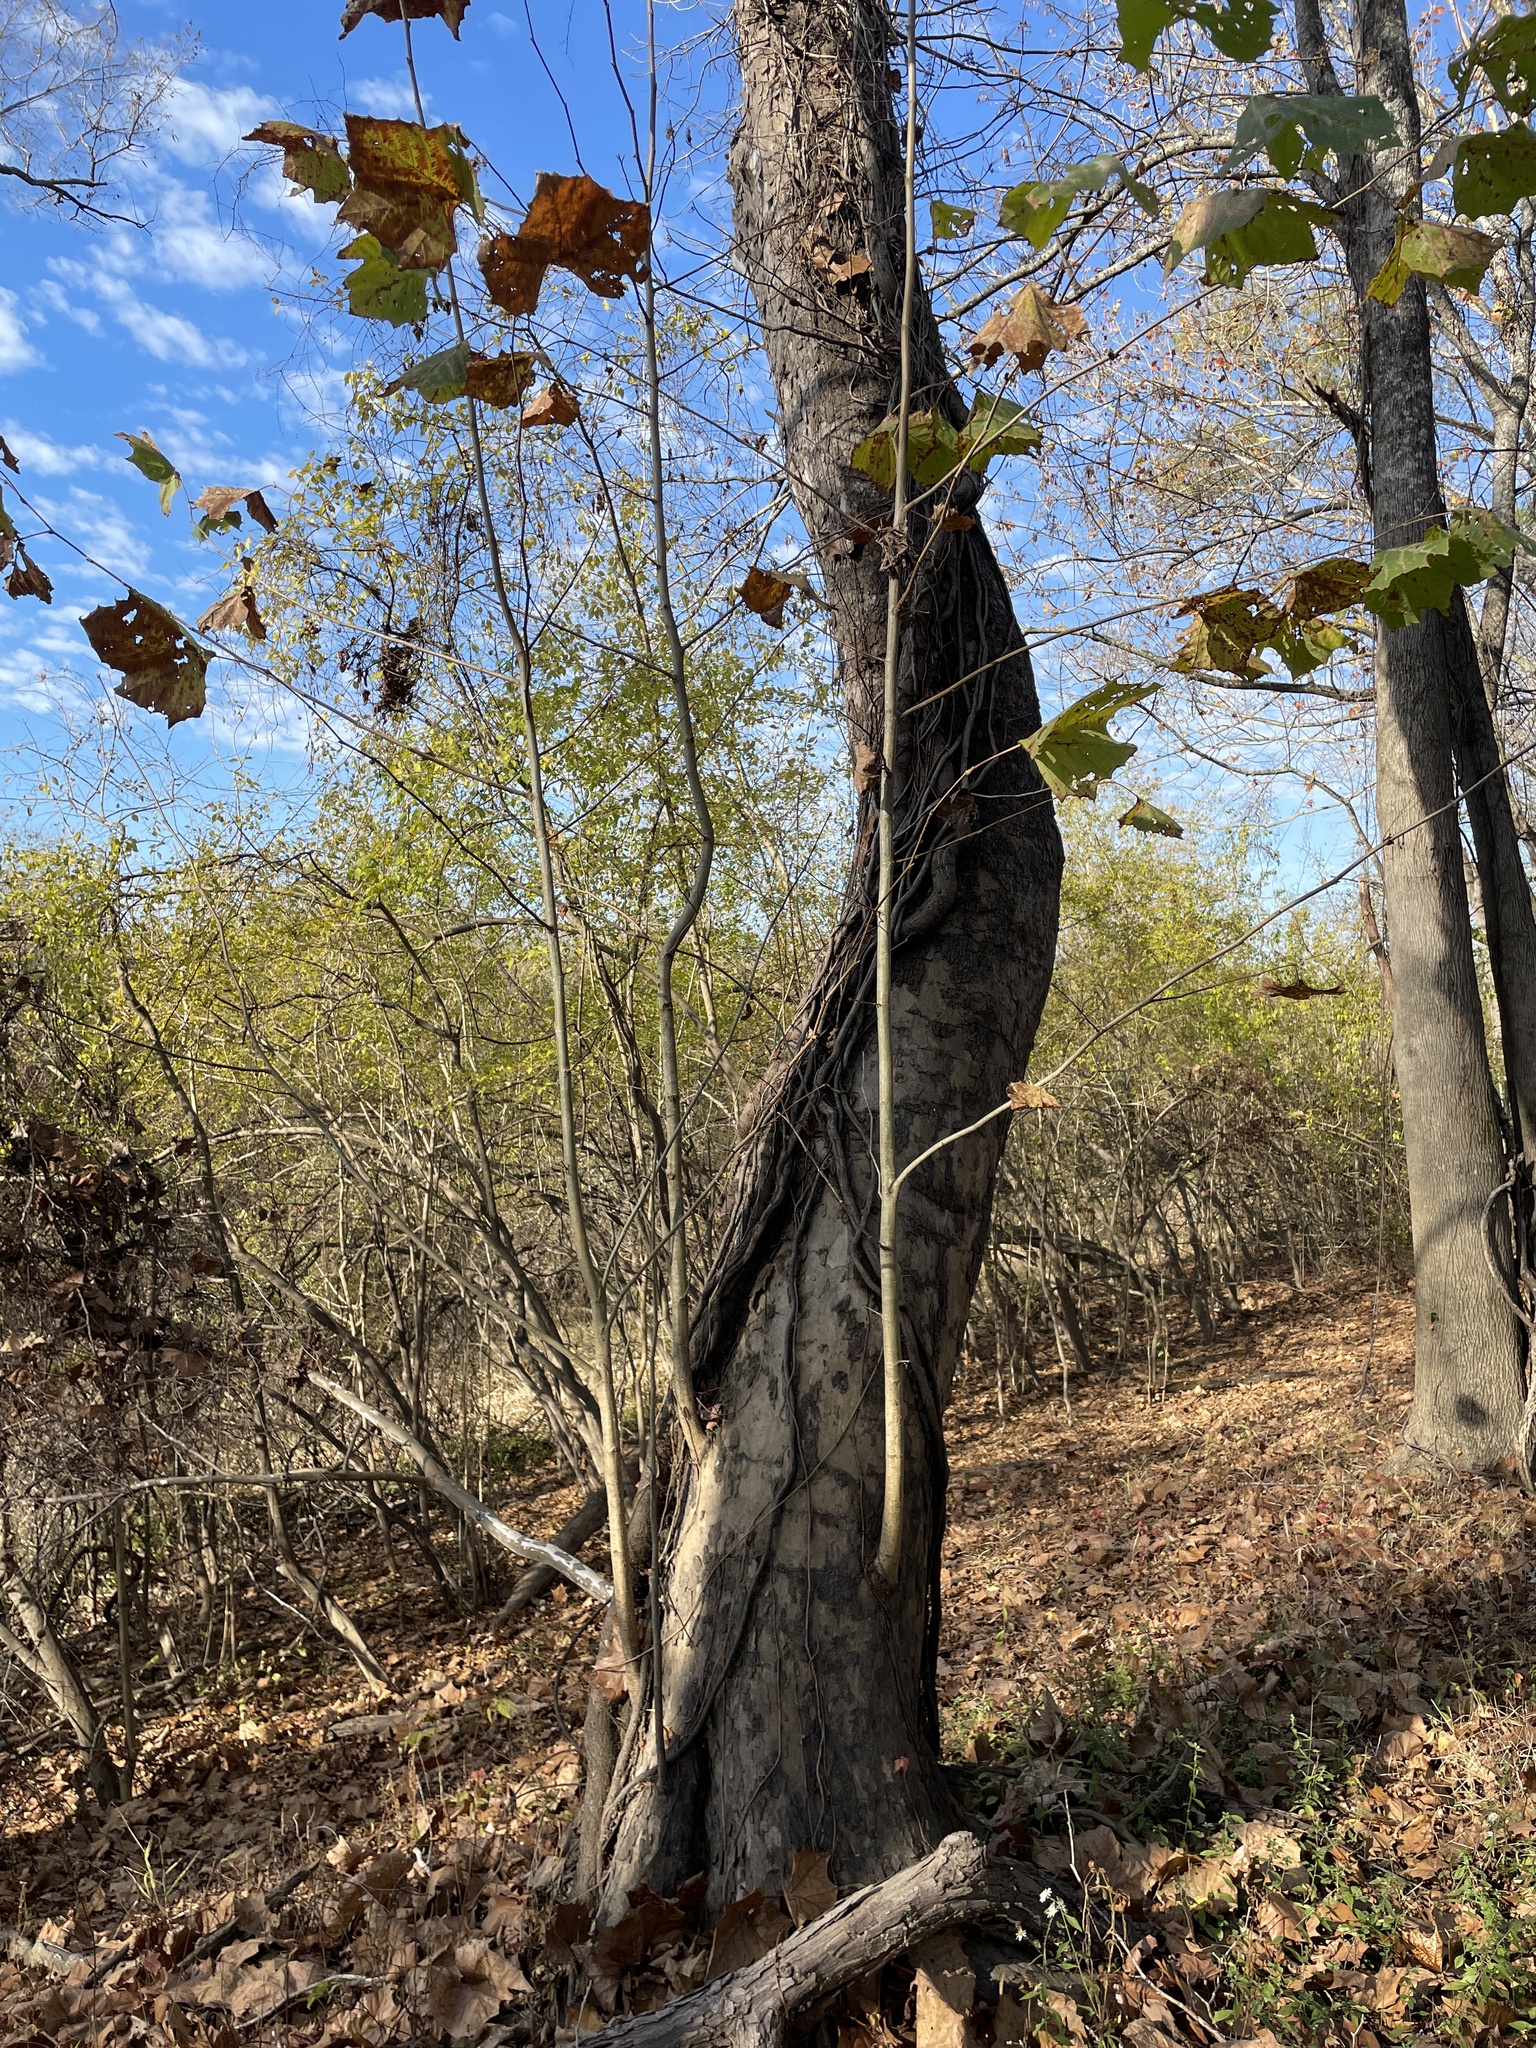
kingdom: Plantae
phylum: Tracheophyta
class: Magnoliopsida
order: Proteales
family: Platanaceae
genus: Platanus
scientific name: Platanus occidentalis
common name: American sycamore
